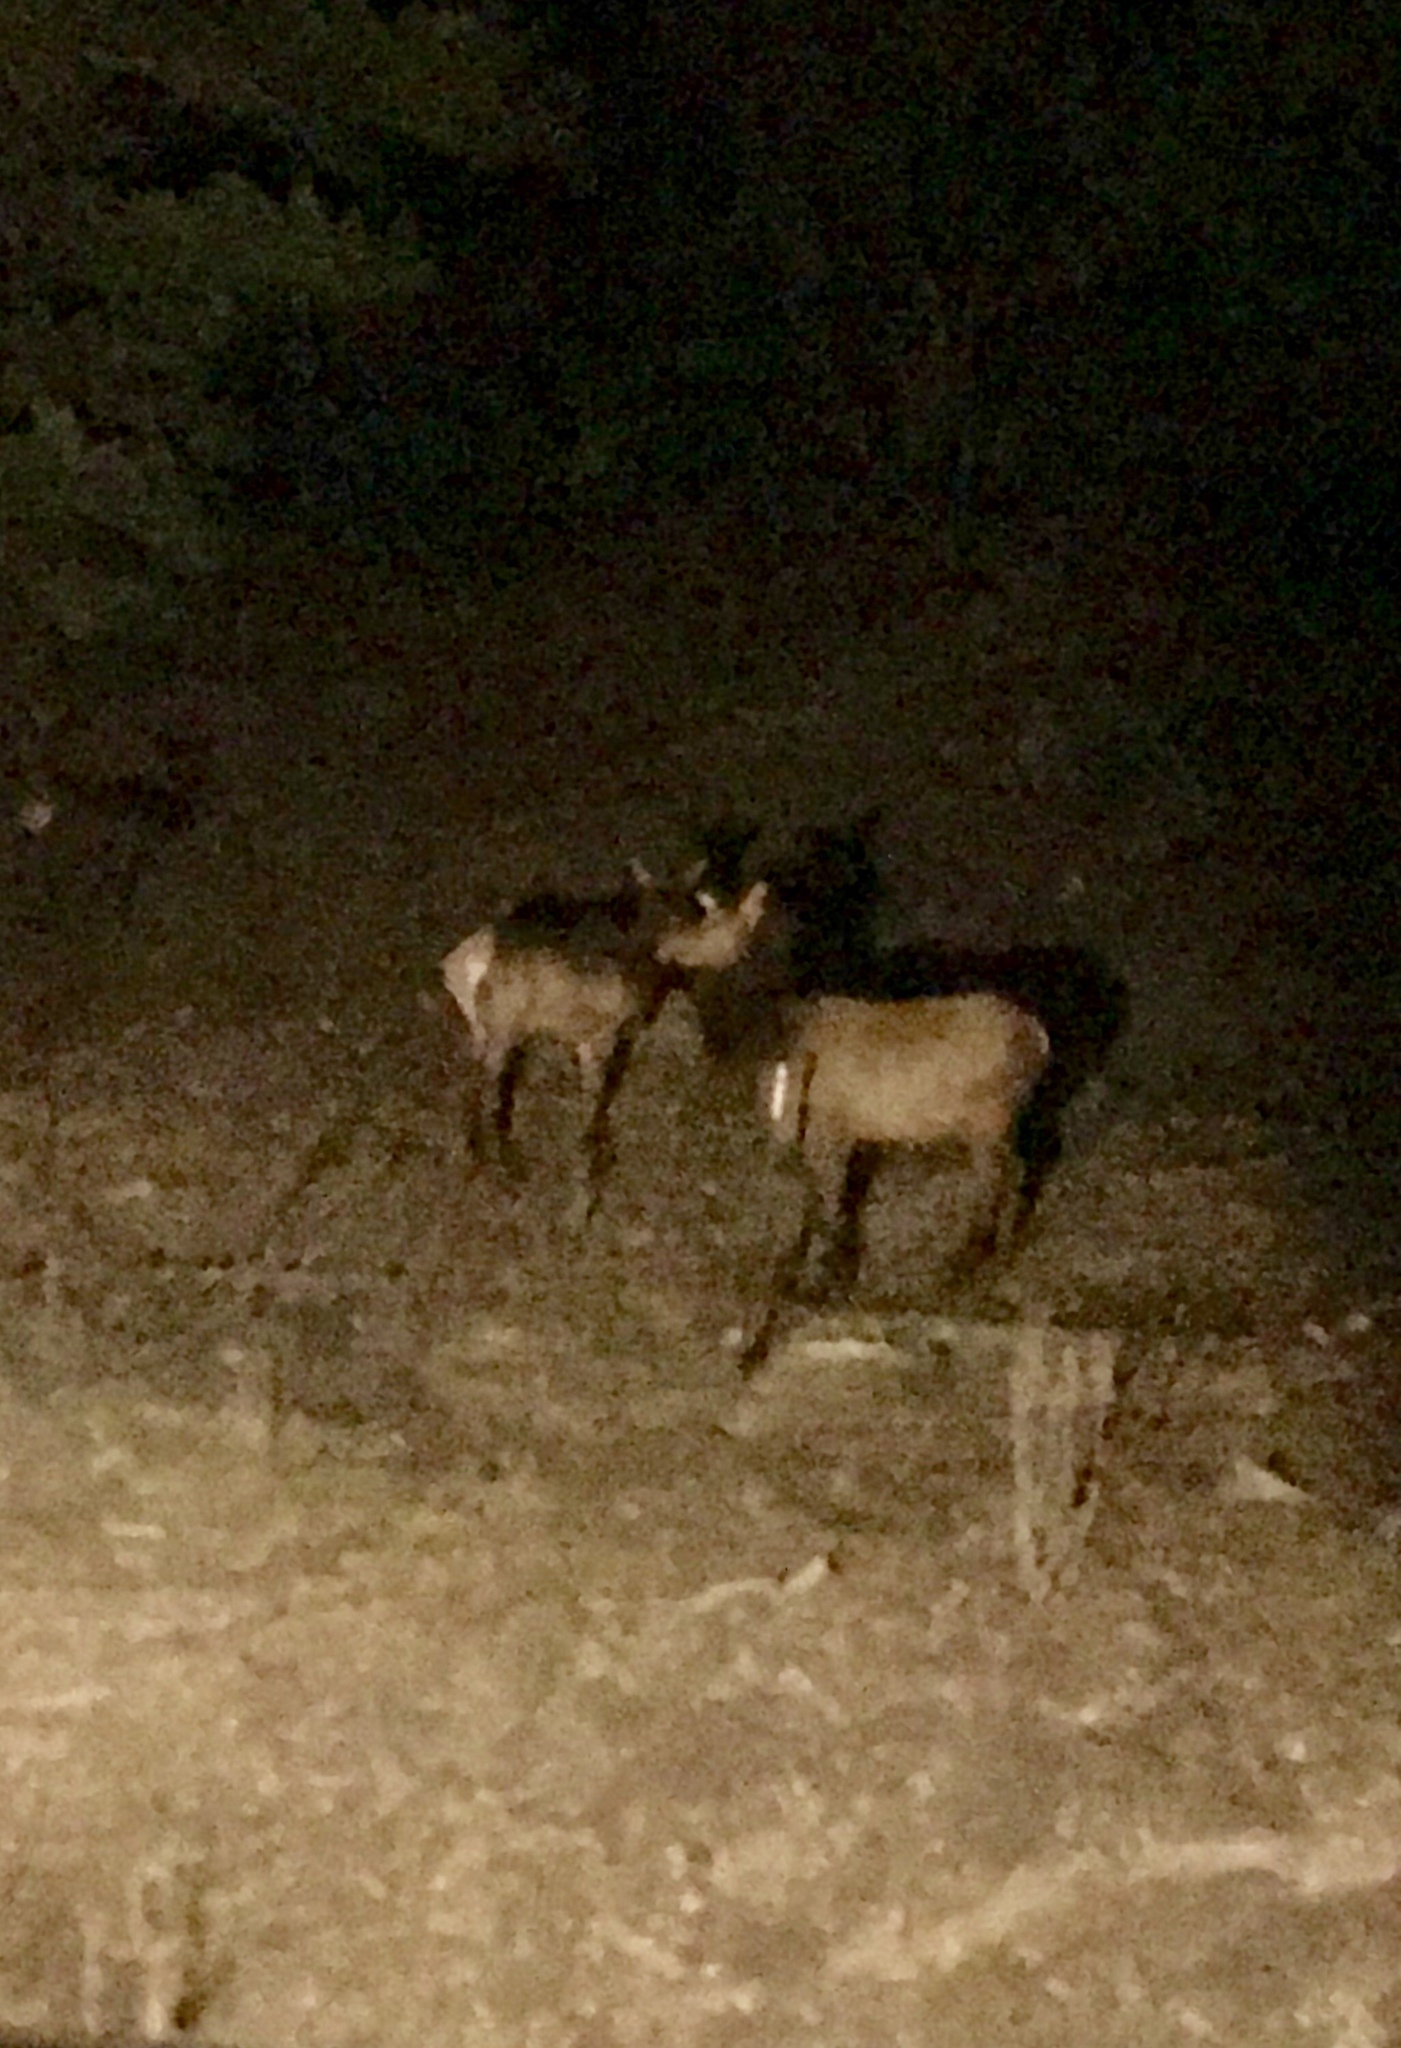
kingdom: Animalia
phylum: Chordata
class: Mammalia
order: Artiodactyla
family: Cervidae
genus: Cervus
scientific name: Cervus elaphus
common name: Red deer
